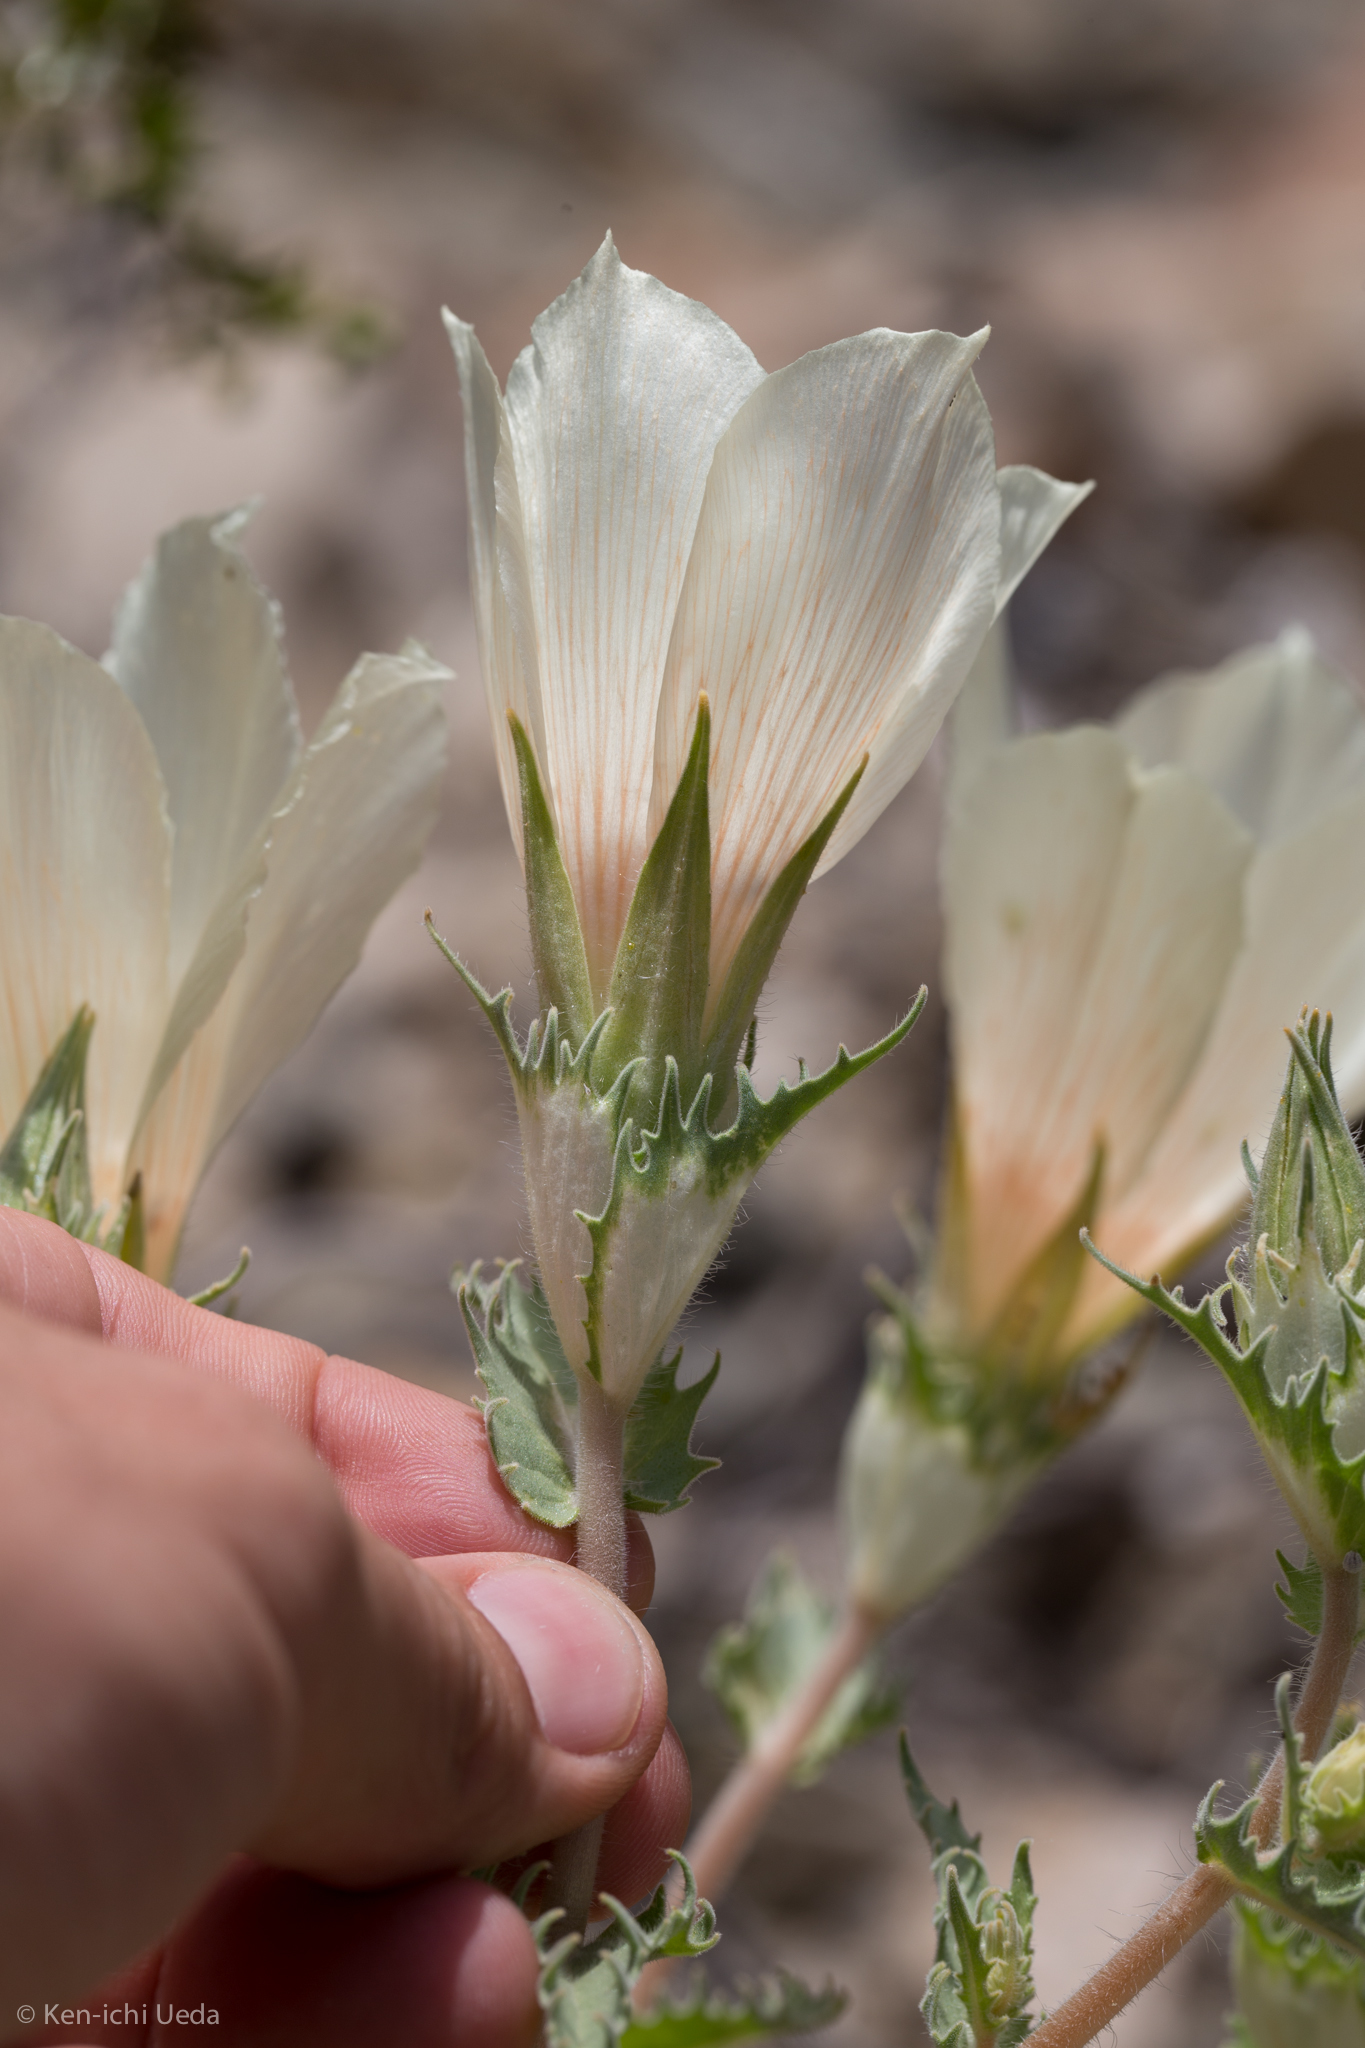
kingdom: Plantae
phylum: Tracheophyta
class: Magnoliopsida
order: Cornales
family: Loasaceae
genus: Mentzelia
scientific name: Mentzelia involucrata
